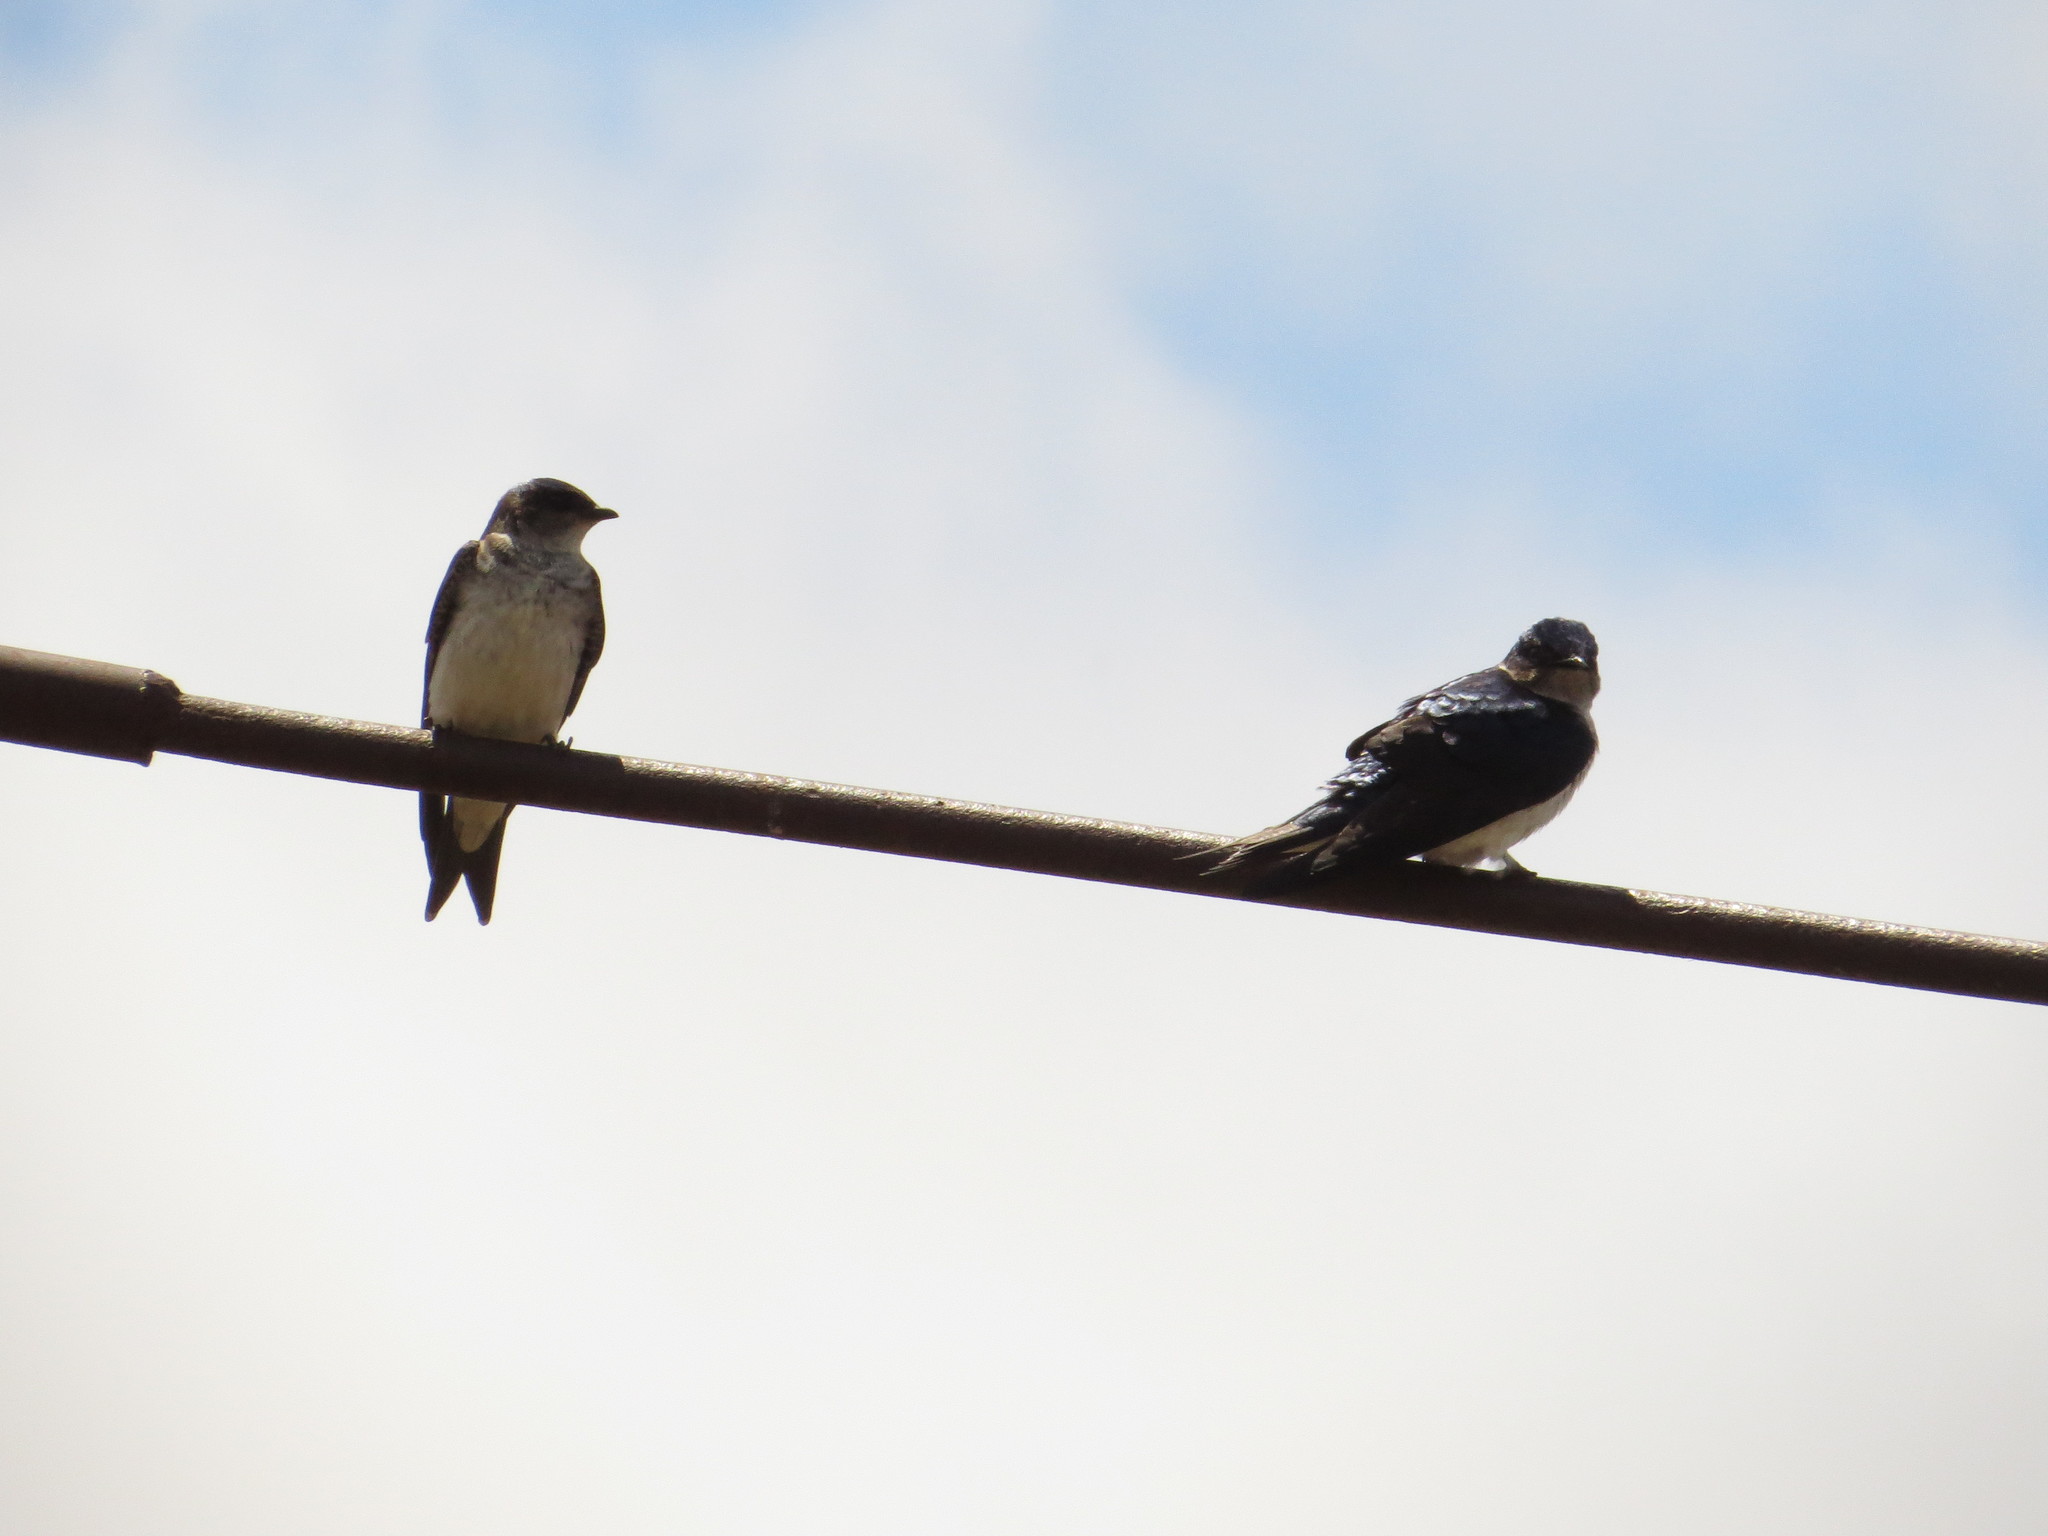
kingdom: Animalia
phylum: Chordata
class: Aves
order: Passeriformes
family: Hirundinidae
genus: Progne
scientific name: Progne chalybea
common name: Grey-breasted martin
